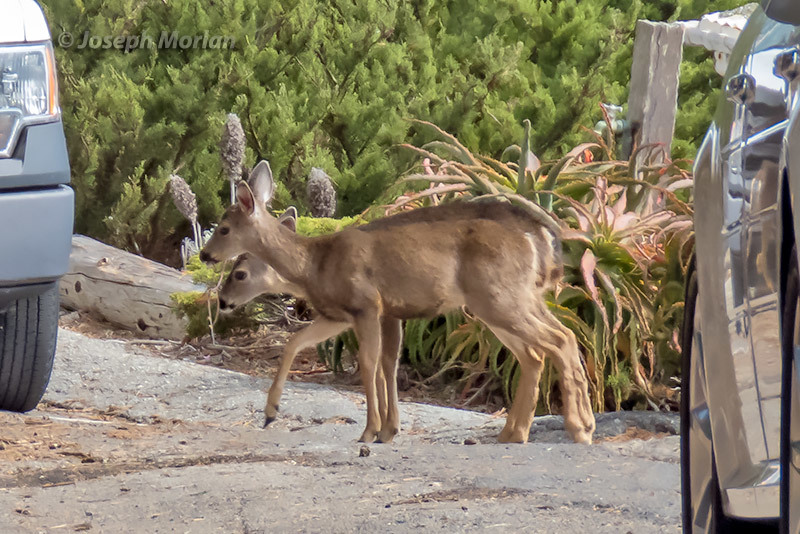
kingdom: Animalia
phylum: Chordata
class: Mammalia
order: Artiodactyla
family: Cervidae
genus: Odocoileus
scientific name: Odocoileus hemionus
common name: Mule deer
